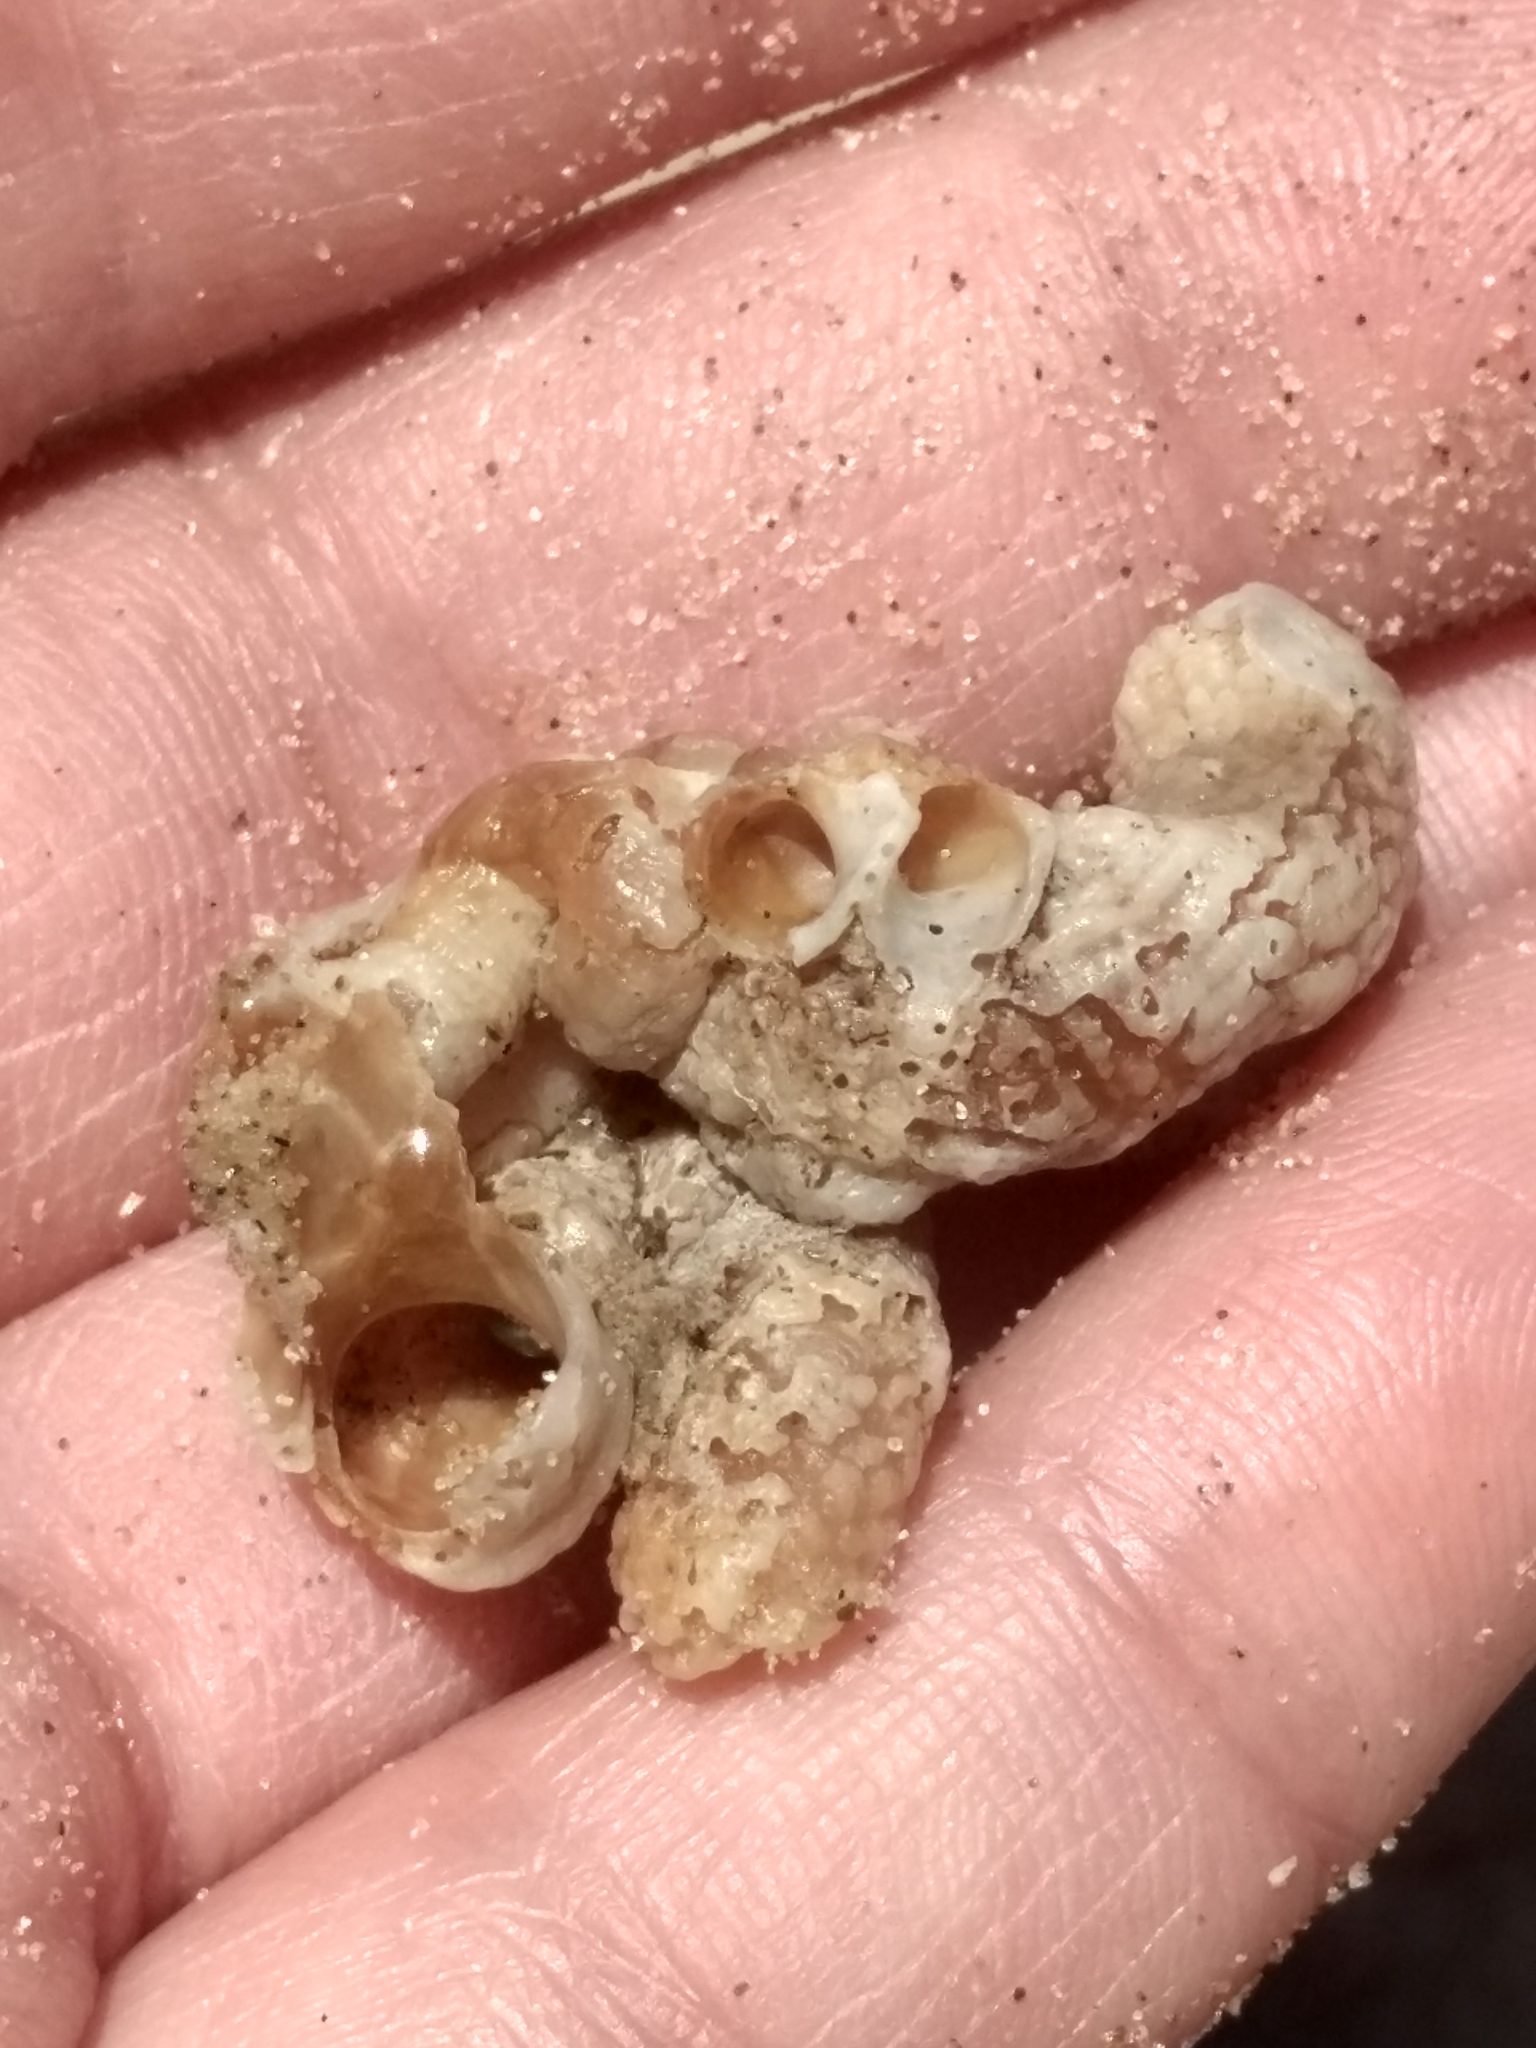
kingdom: Animalia
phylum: Mollusca
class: Gastropoda
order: Littorinimorpha
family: Vermetidae
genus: Thylacodes
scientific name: Thylacodes squamigerus
